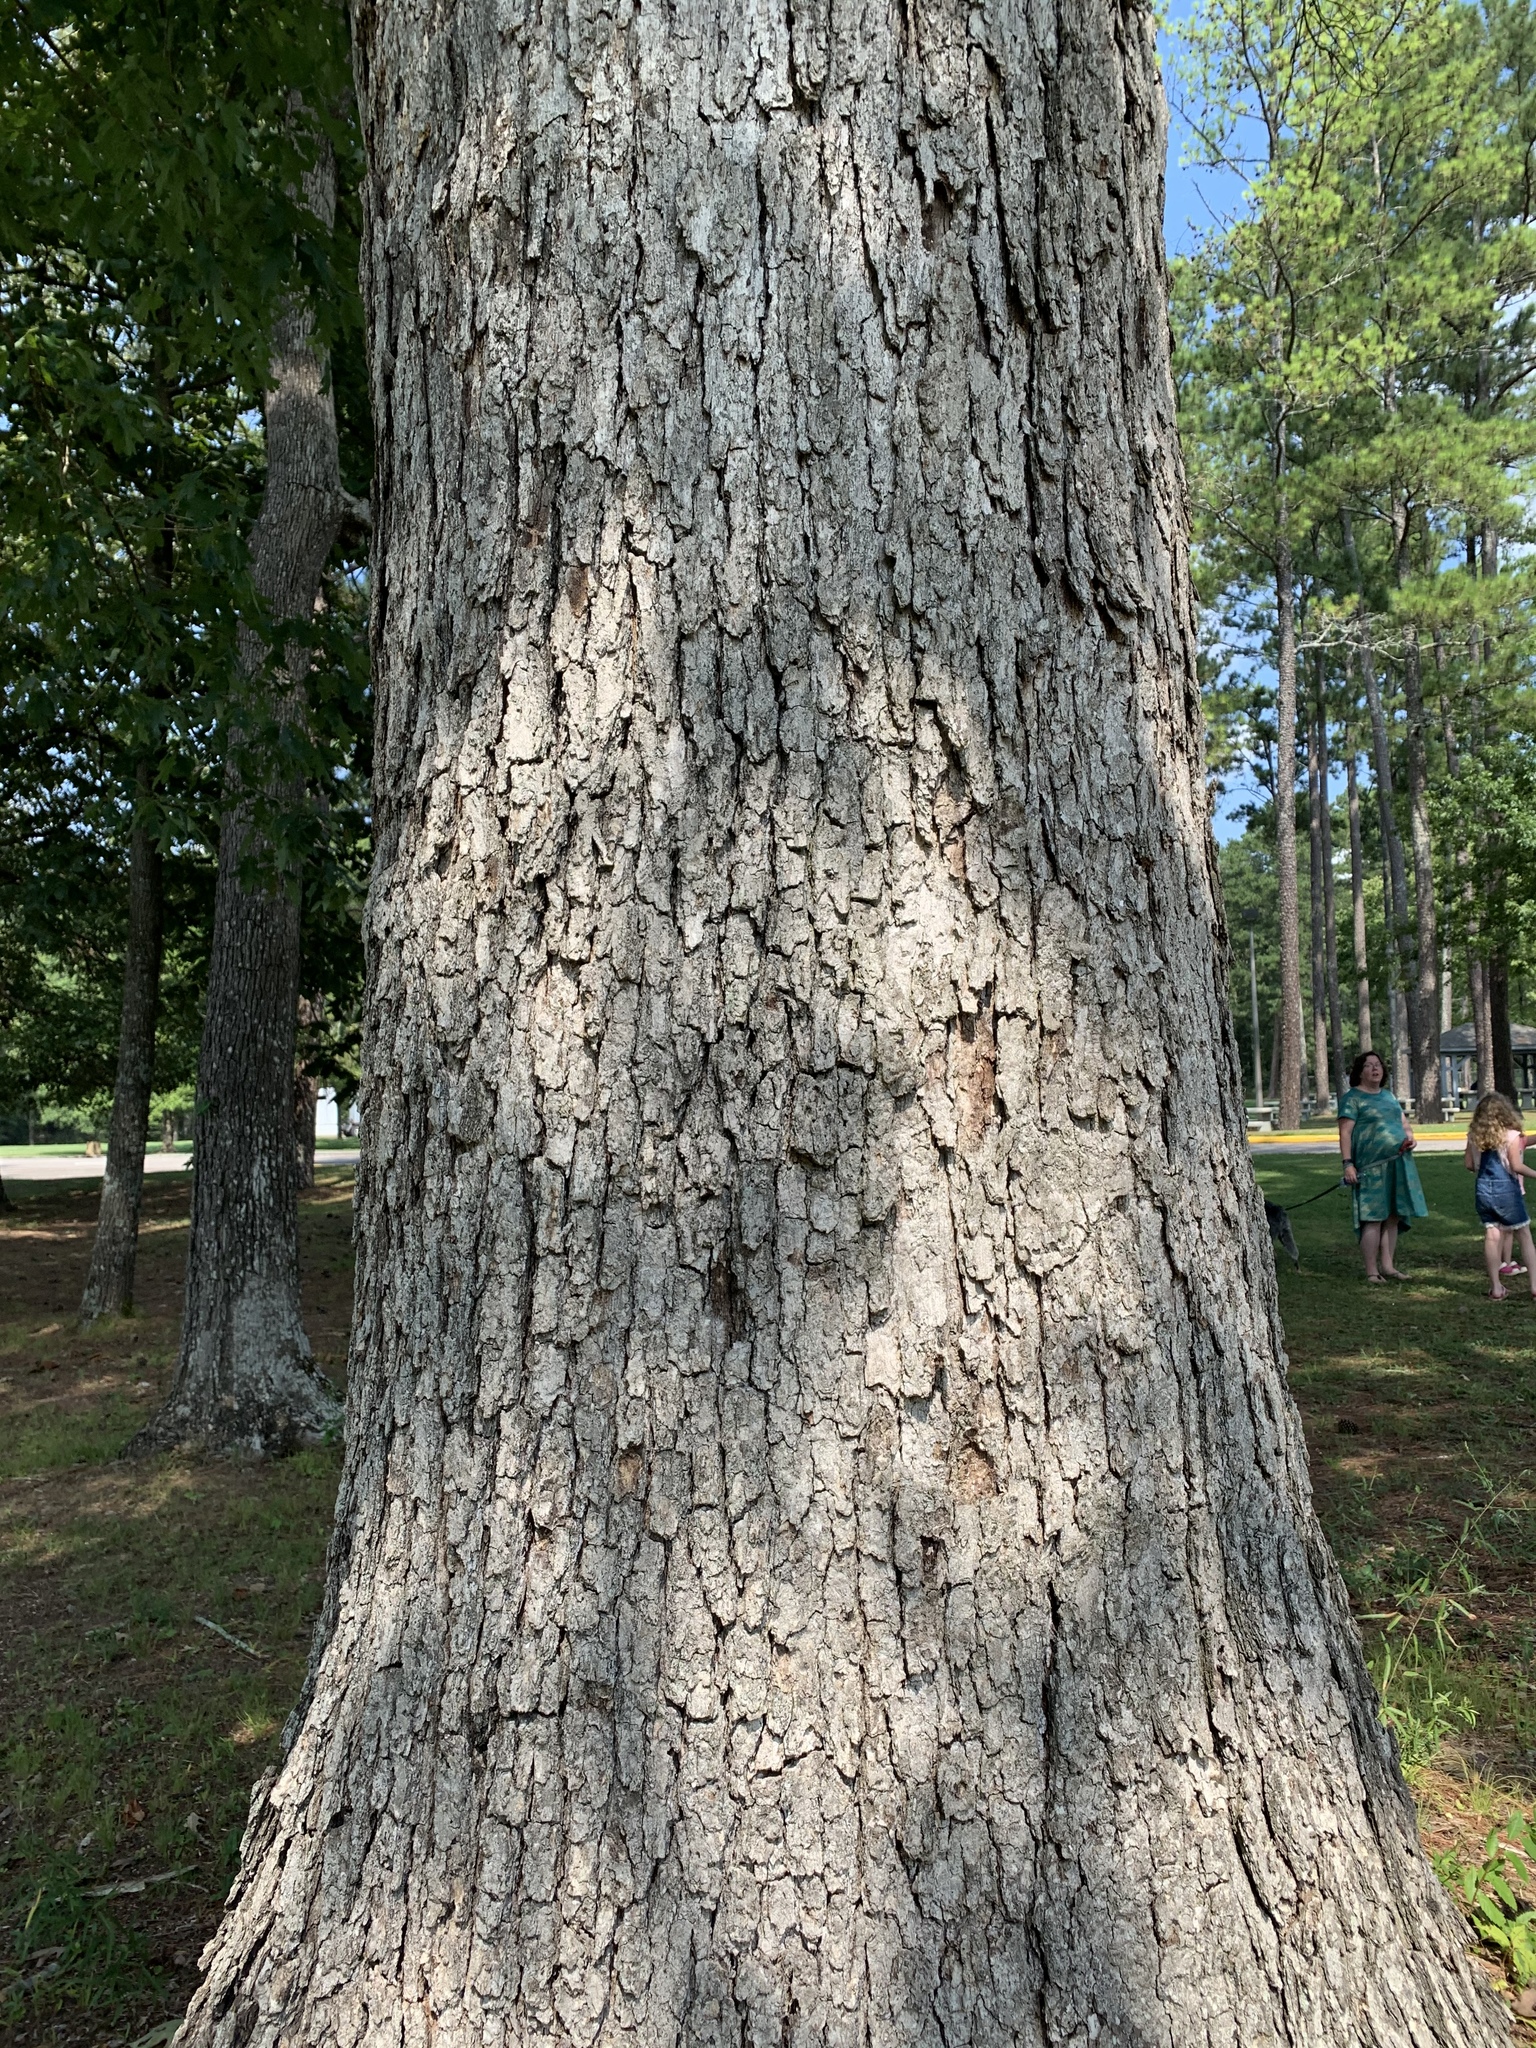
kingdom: Plantae
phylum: Tracheophyta
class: Magnoliopsida
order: Fagales
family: Fagaceae
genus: Quercus
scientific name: Quercus alba
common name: White oak
